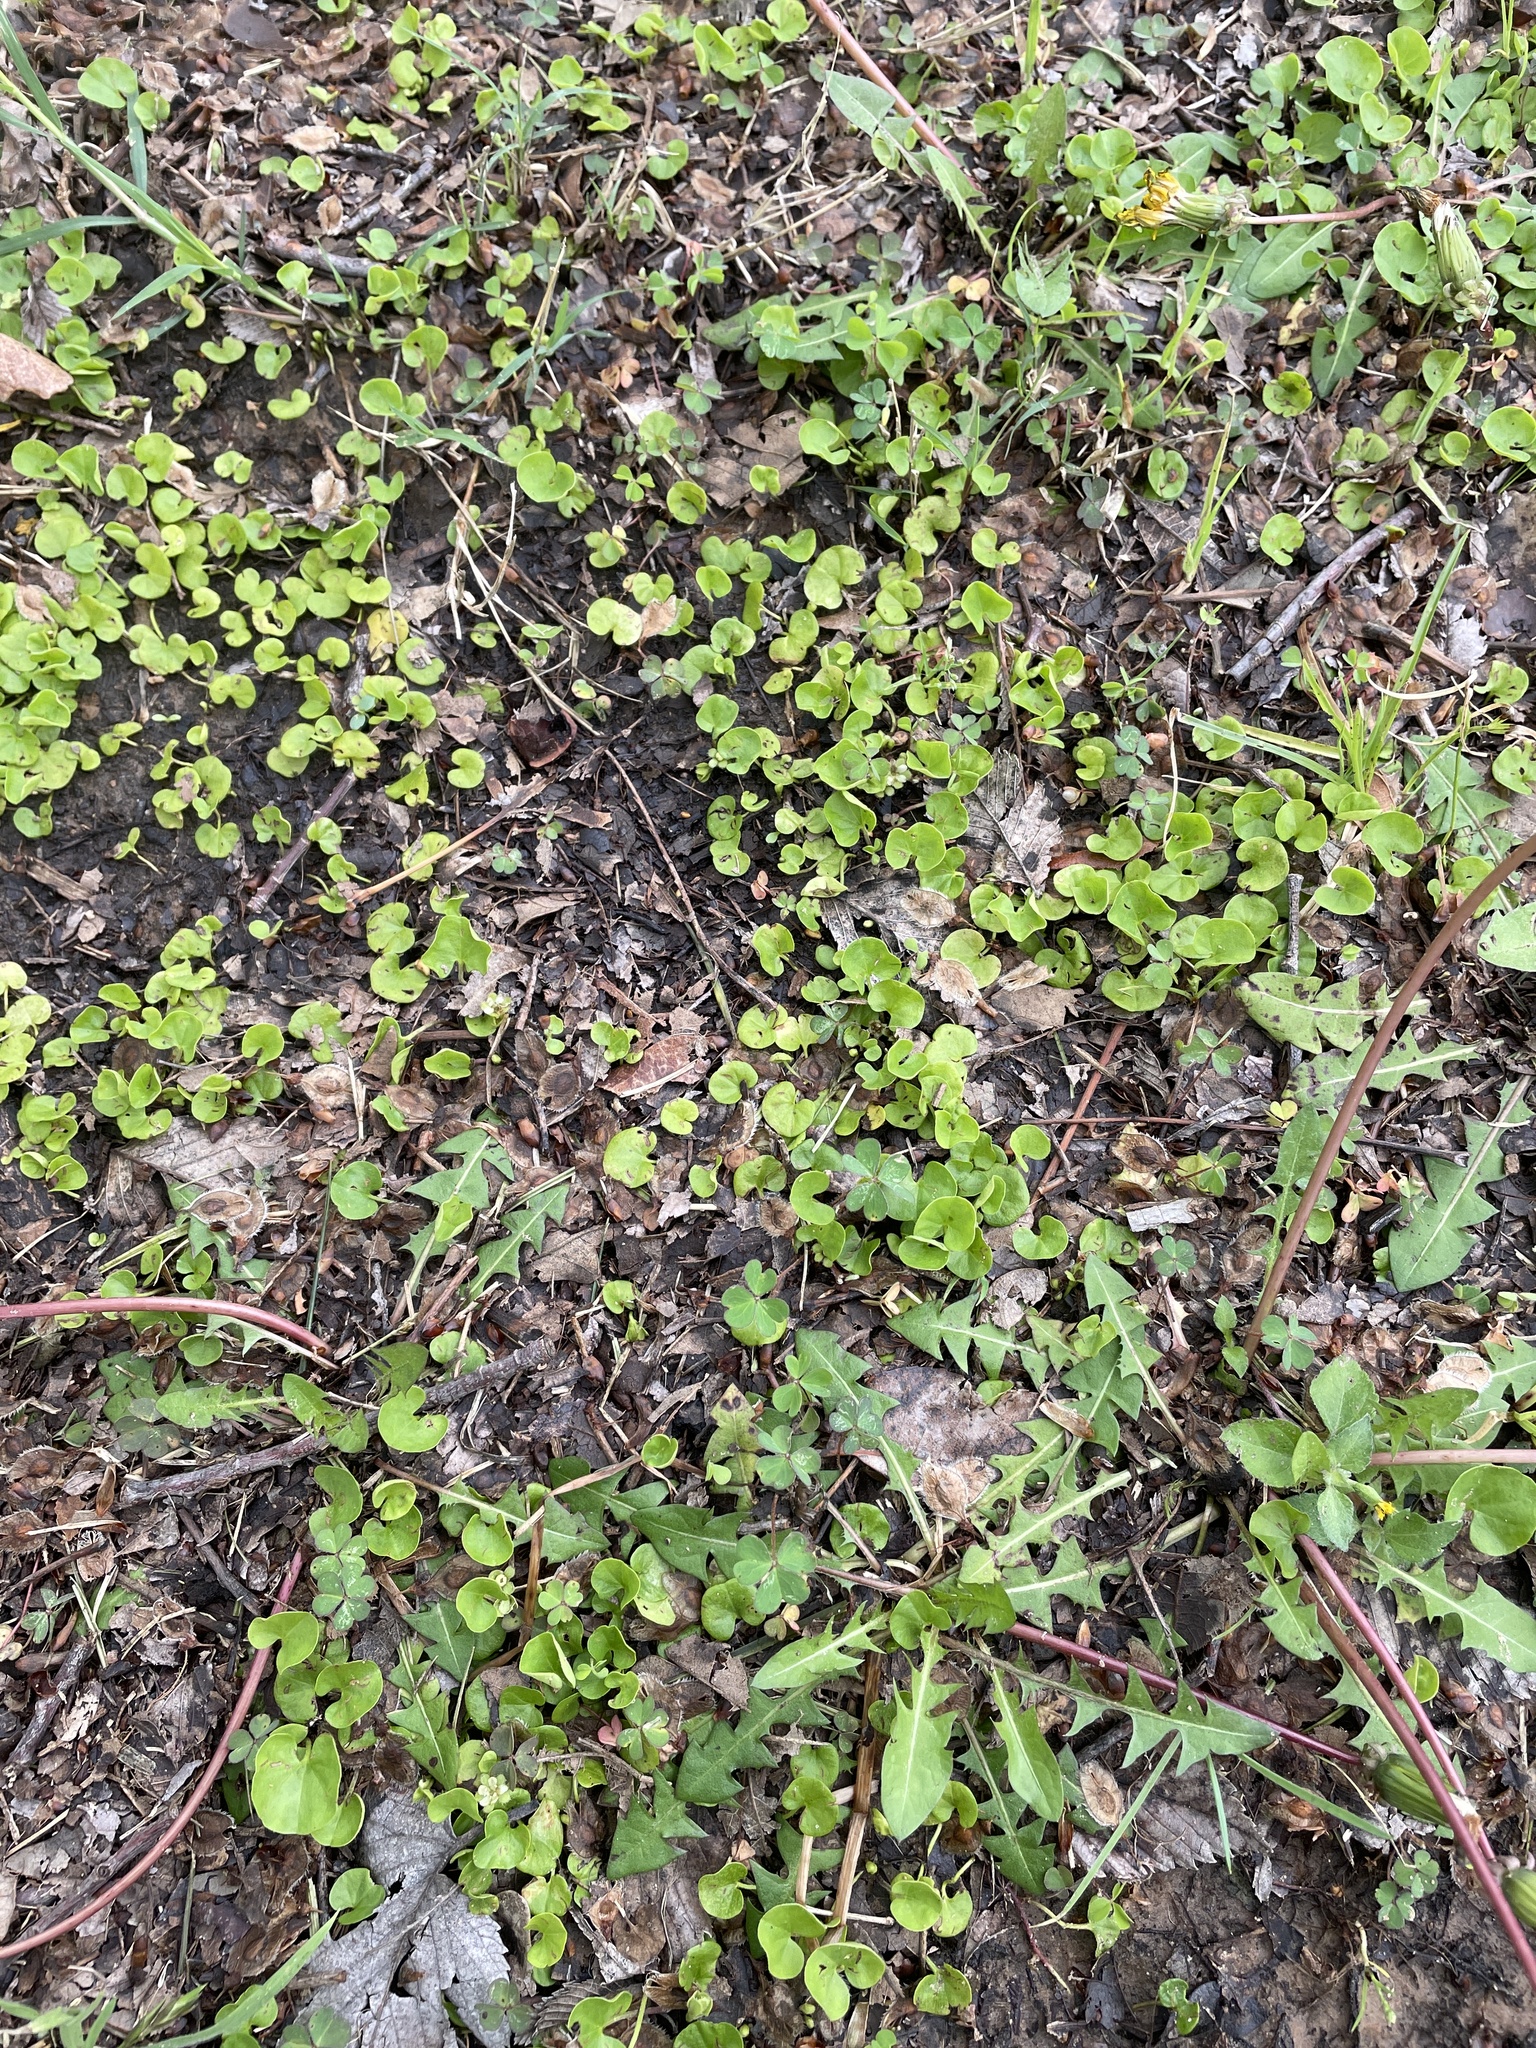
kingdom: Plantae
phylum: Tracheophyta
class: Magnoliopsida
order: Solanales
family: Convolvulaceae
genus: Dichondra
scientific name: Dichondra carolinensis
